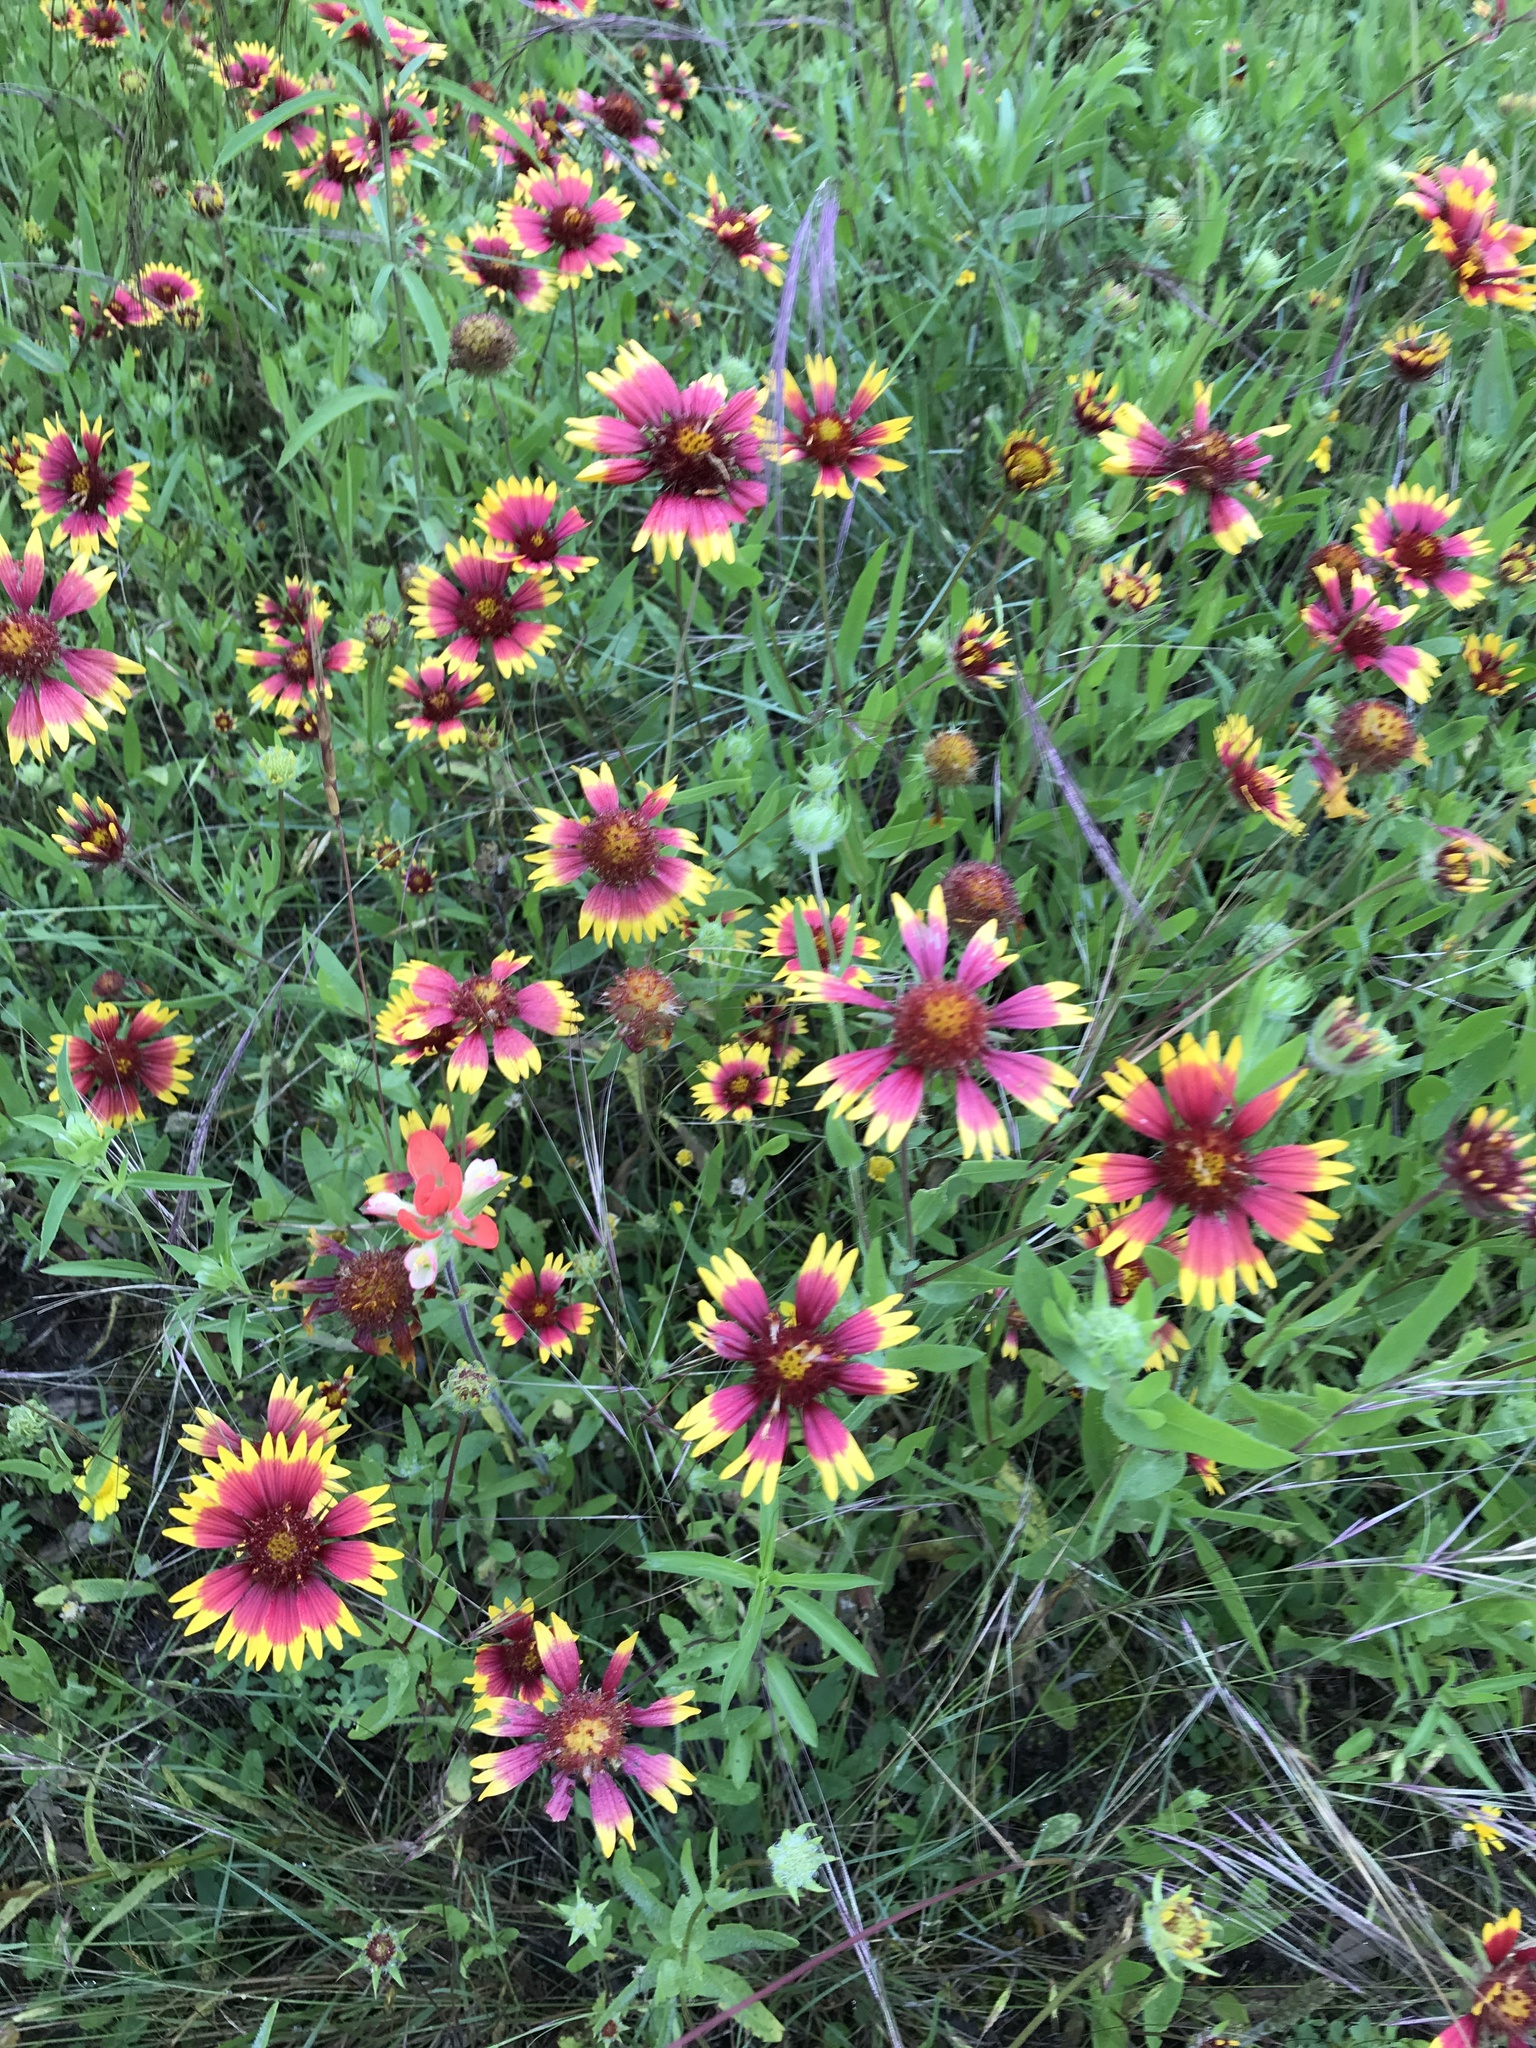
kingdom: Plantae
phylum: Tracheophyta
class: Magnoliopsida
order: Asterales
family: Asteraceae
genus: Gaillardia
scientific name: Gaillardia pulchella
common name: Firewheel
